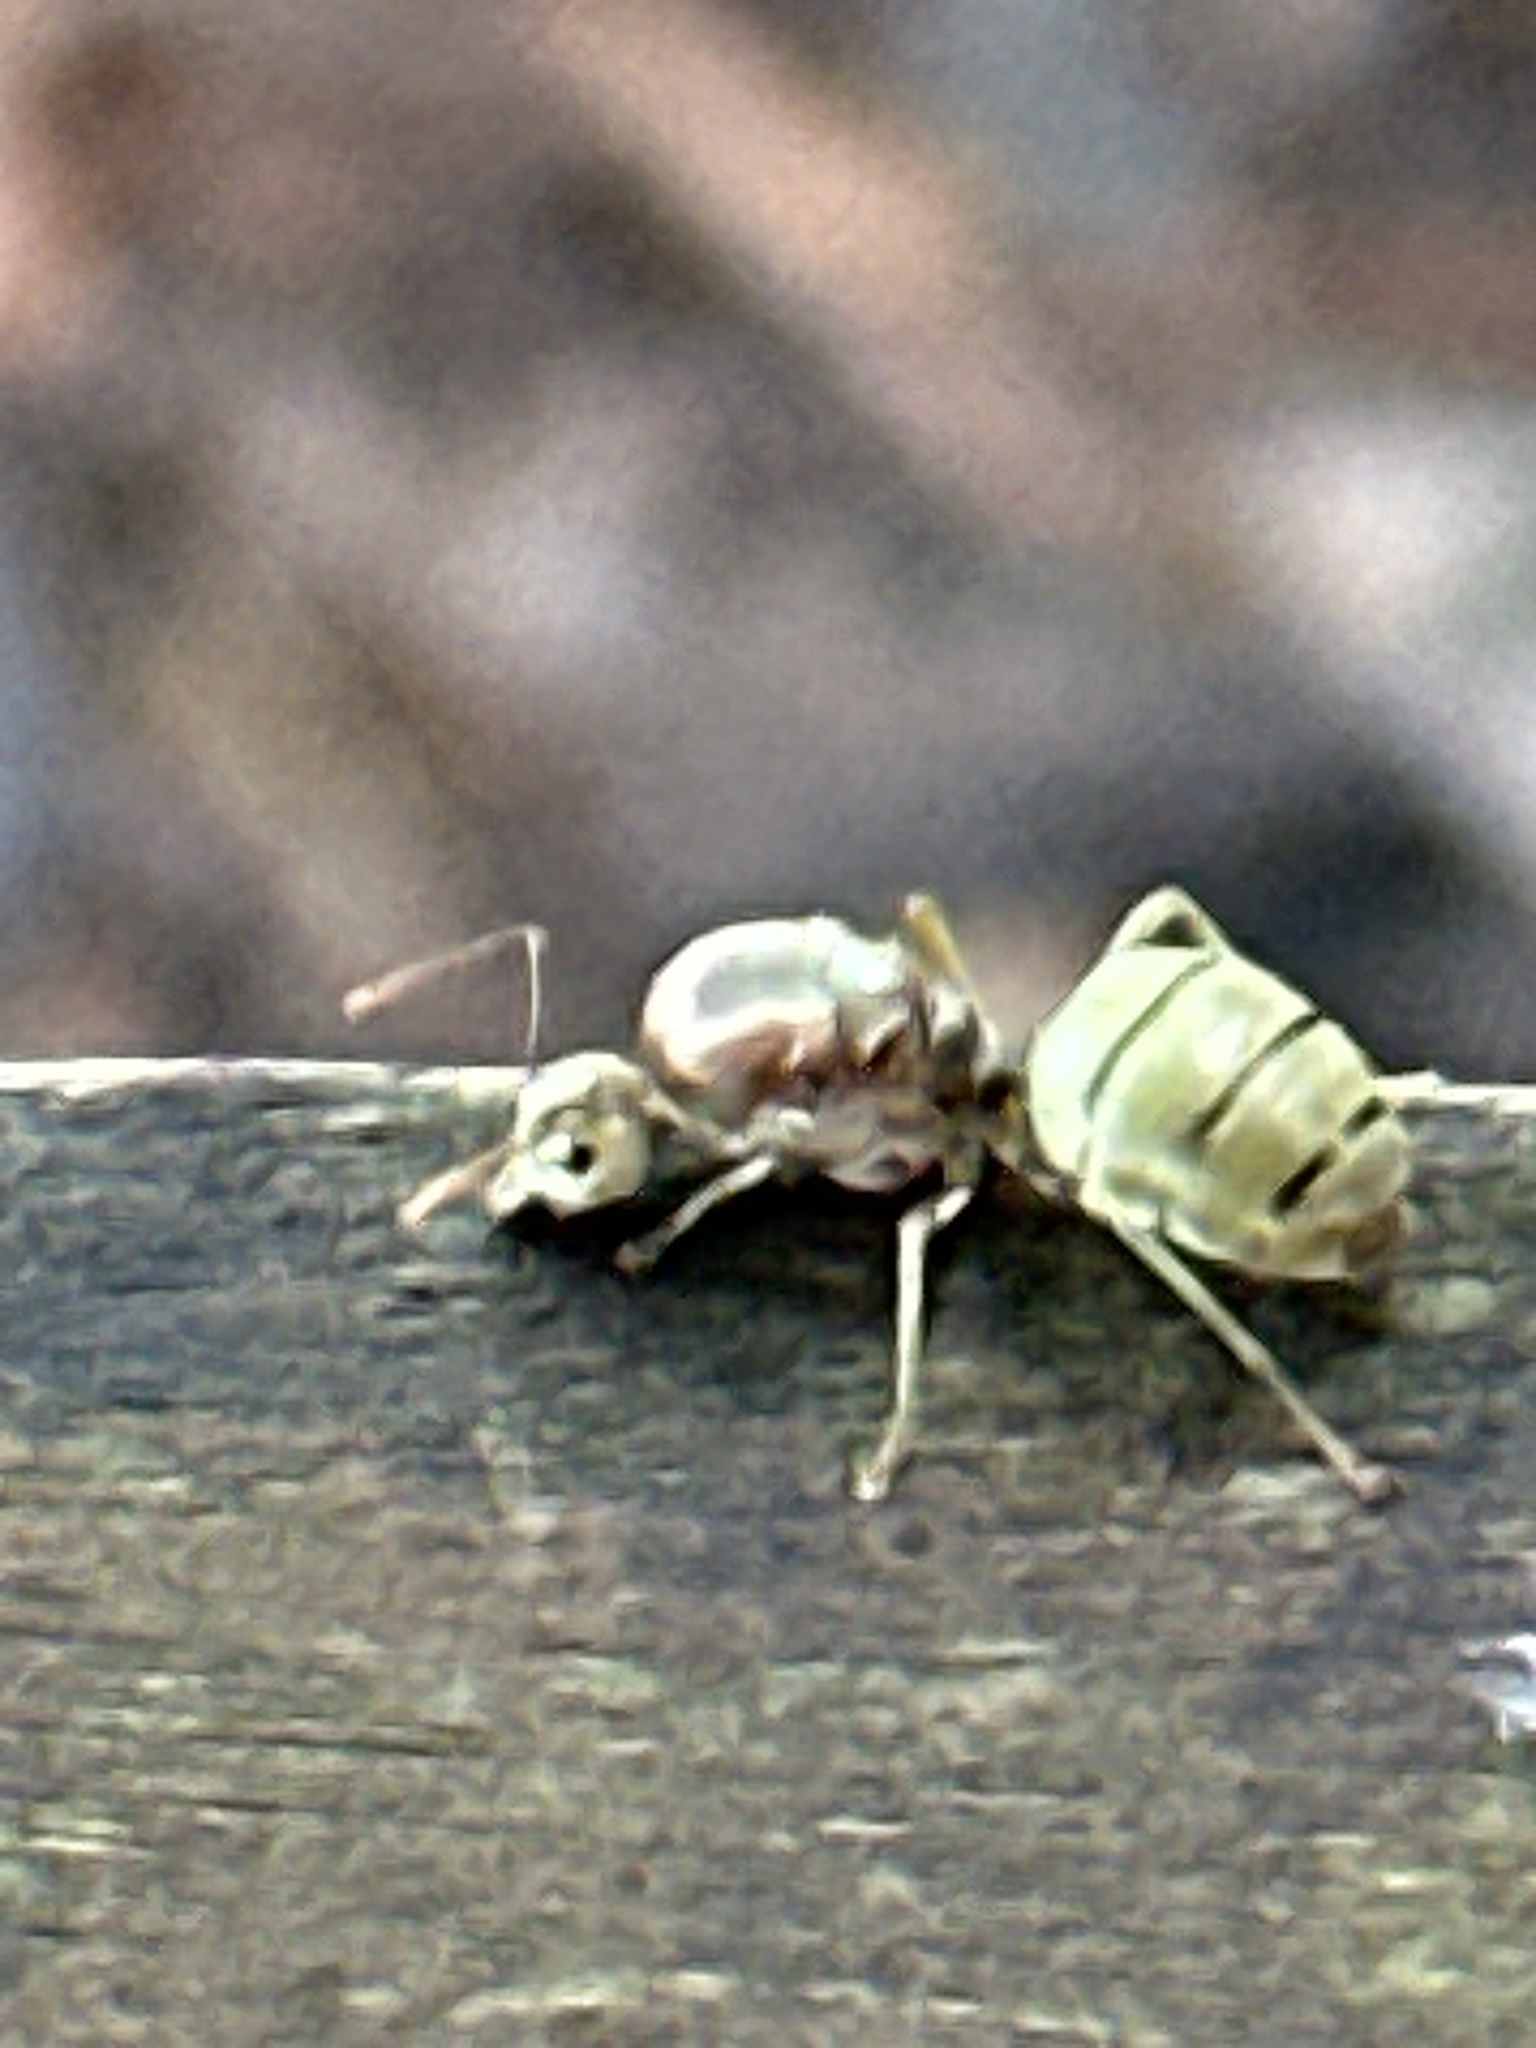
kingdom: Animalia
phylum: Arthropoda
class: Insecta
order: Hymenoptera
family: Formicidae
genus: Oecophylla
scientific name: Oecophylla smaragdina
